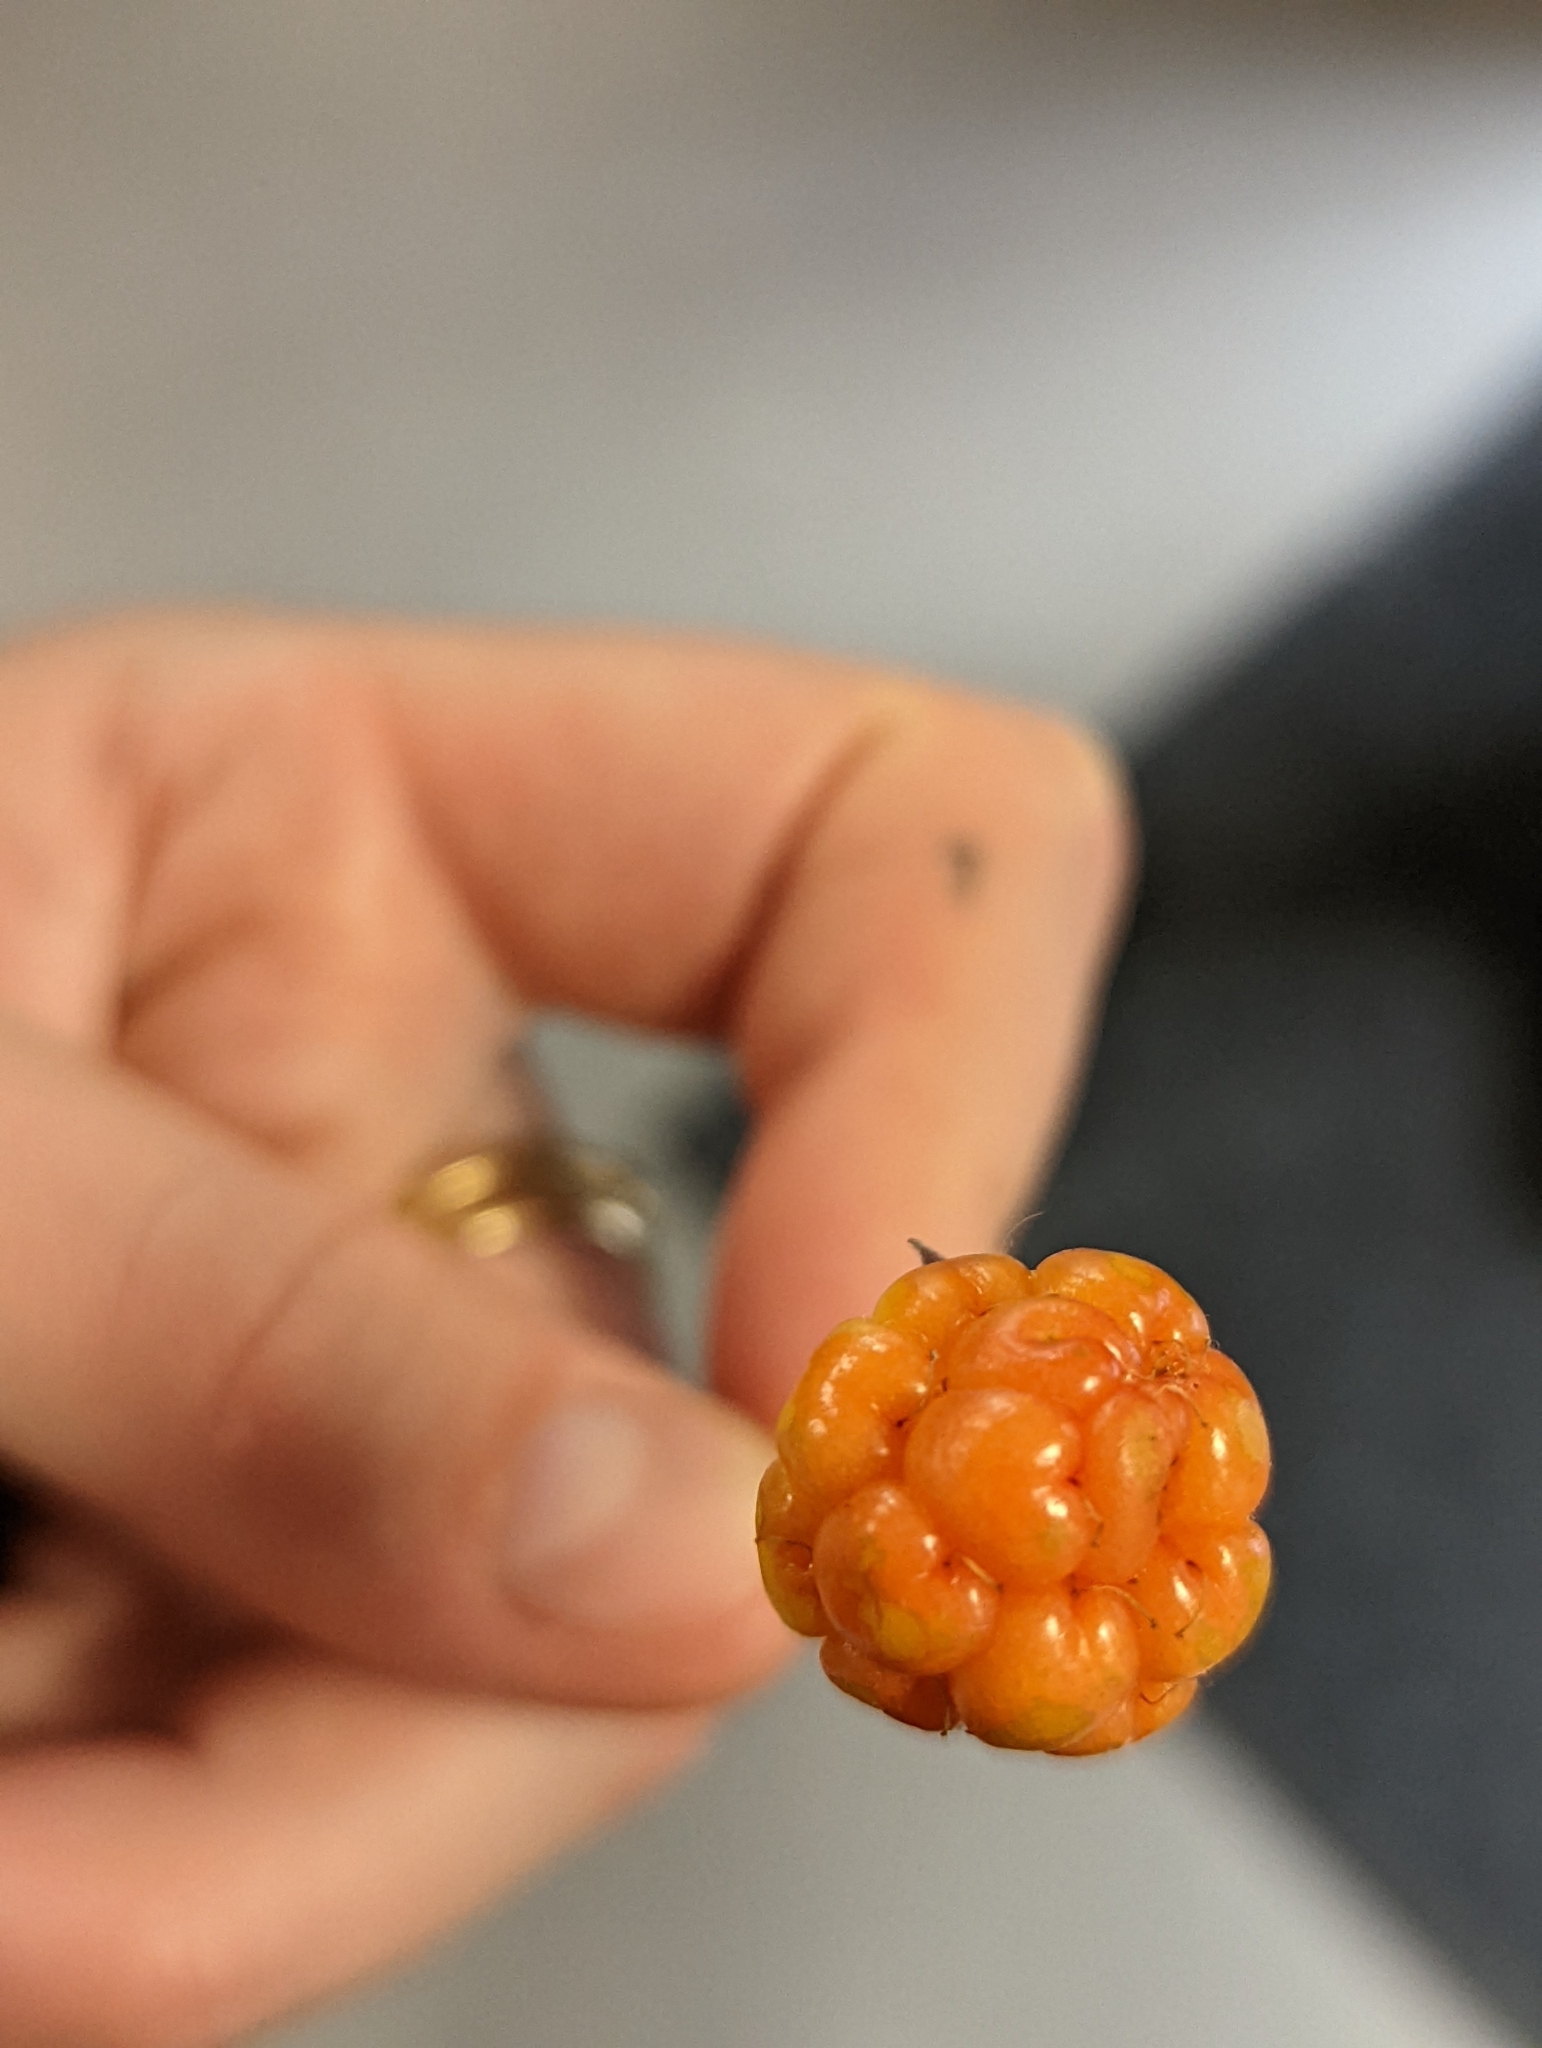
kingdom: Plantae
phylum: Tracheophyta
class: Magnoliopsida
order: Rosales
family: Rosaceae
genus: Rubus
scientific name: Rubus chamaemorus
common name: Cloudberry
